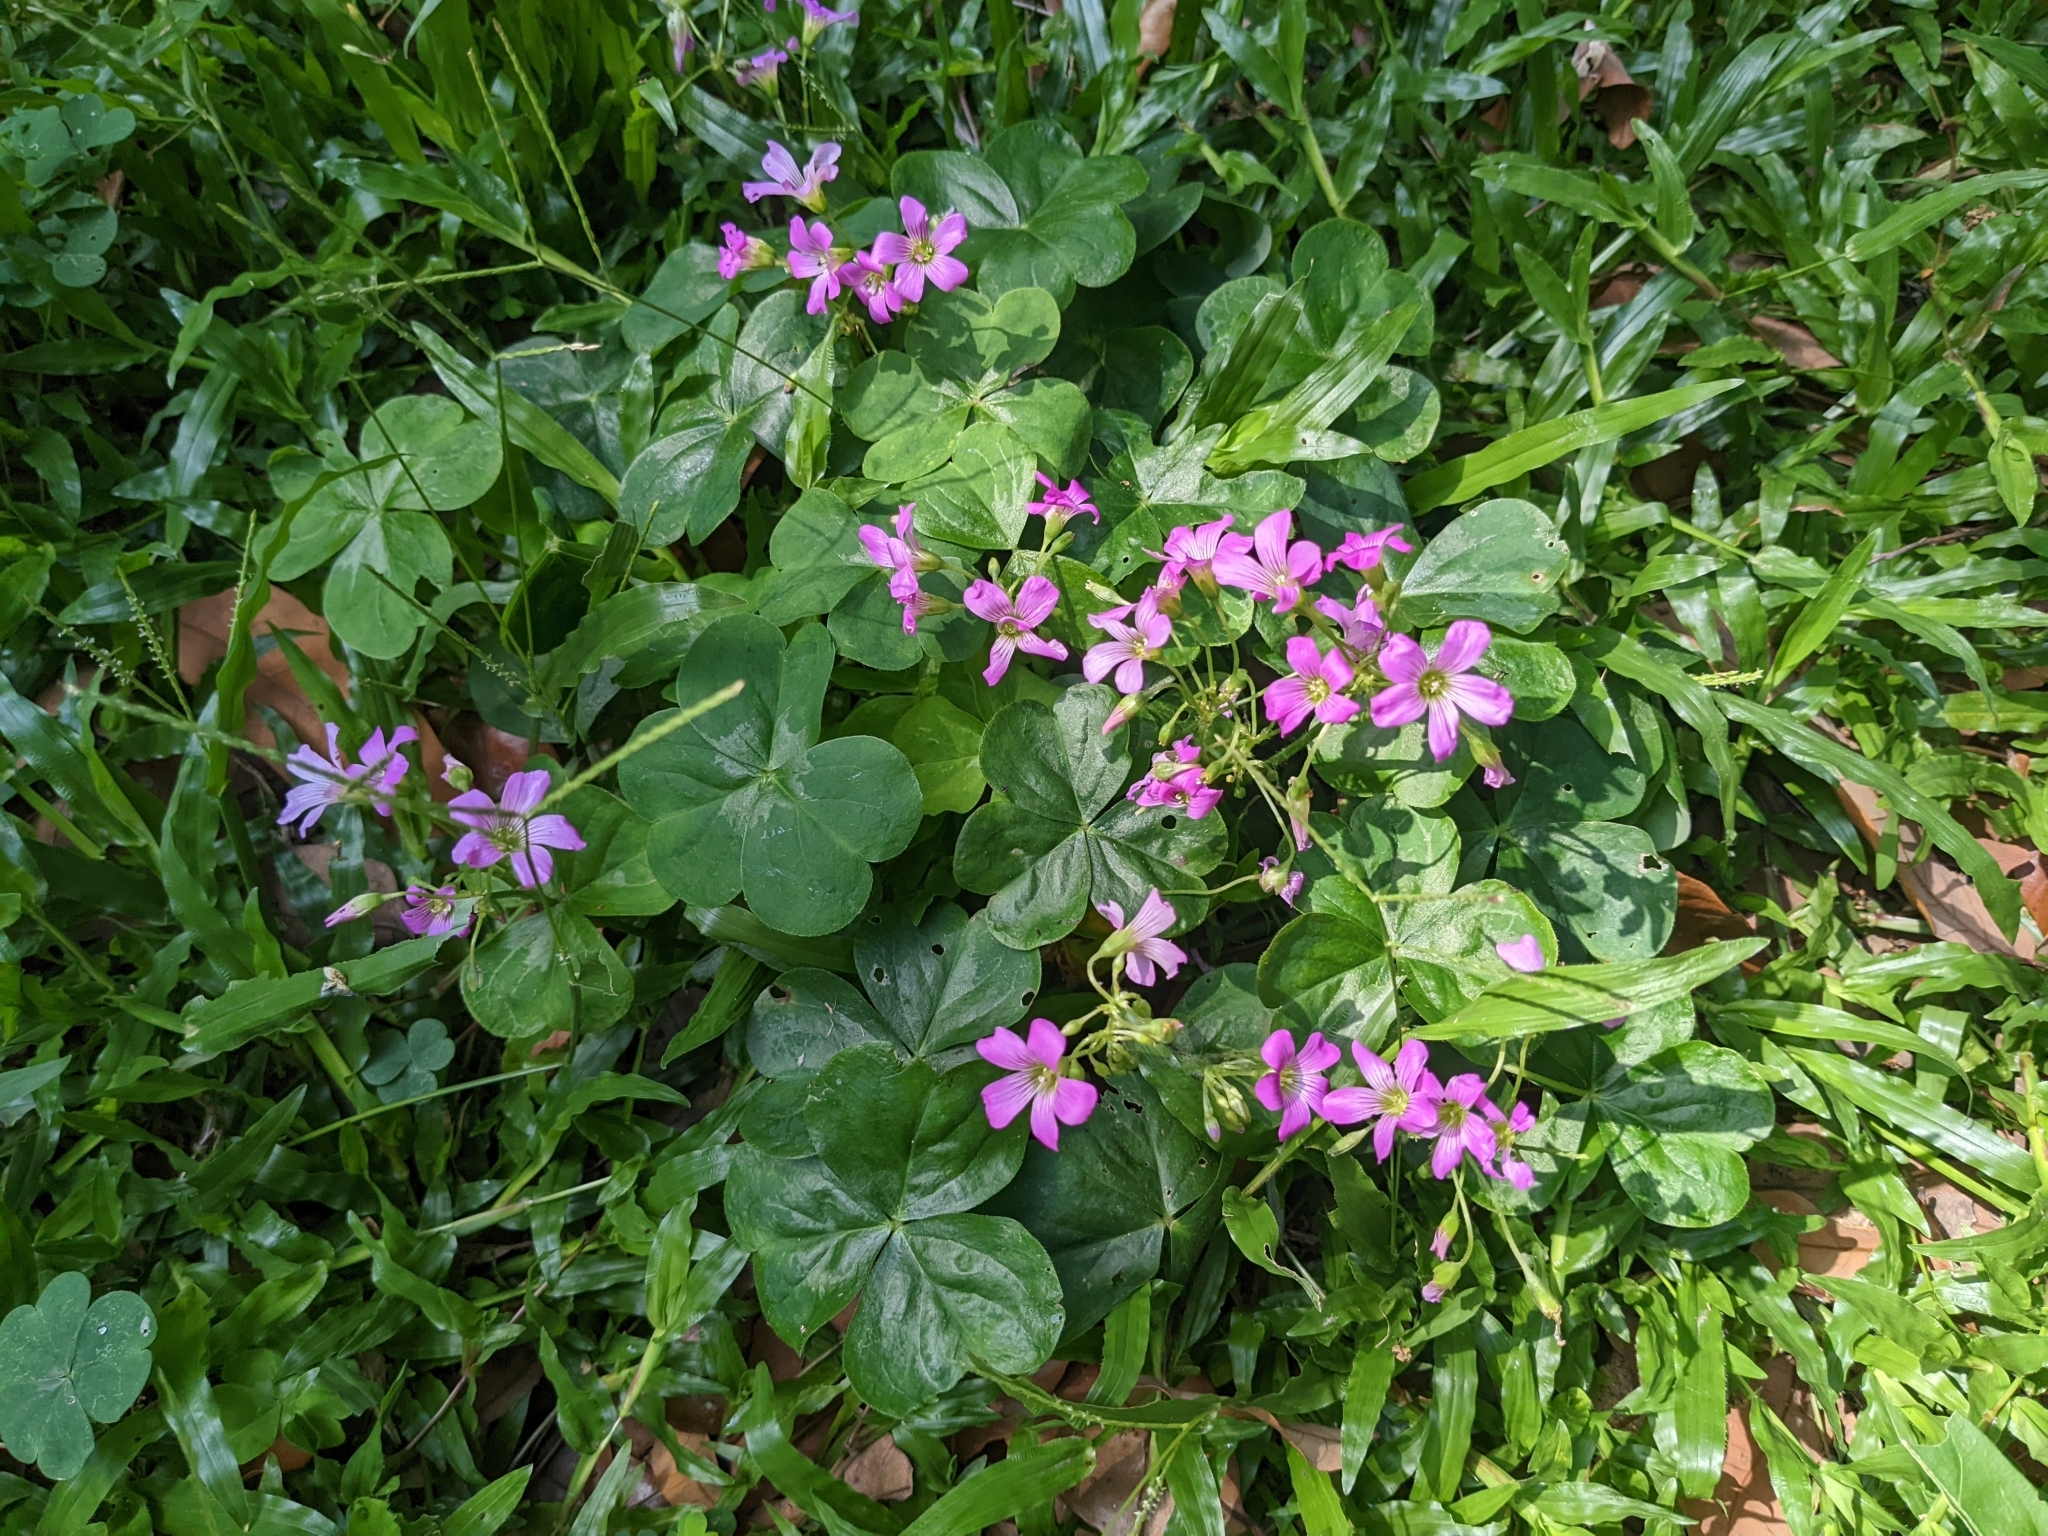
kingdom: Plantae
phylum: Tracheophyta
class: Magnoliopsida
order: Oxalidales
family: Oxalidaceae
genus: Oxalis
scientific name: Oxalis debilis
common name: Large-flowered pink-sorrel
